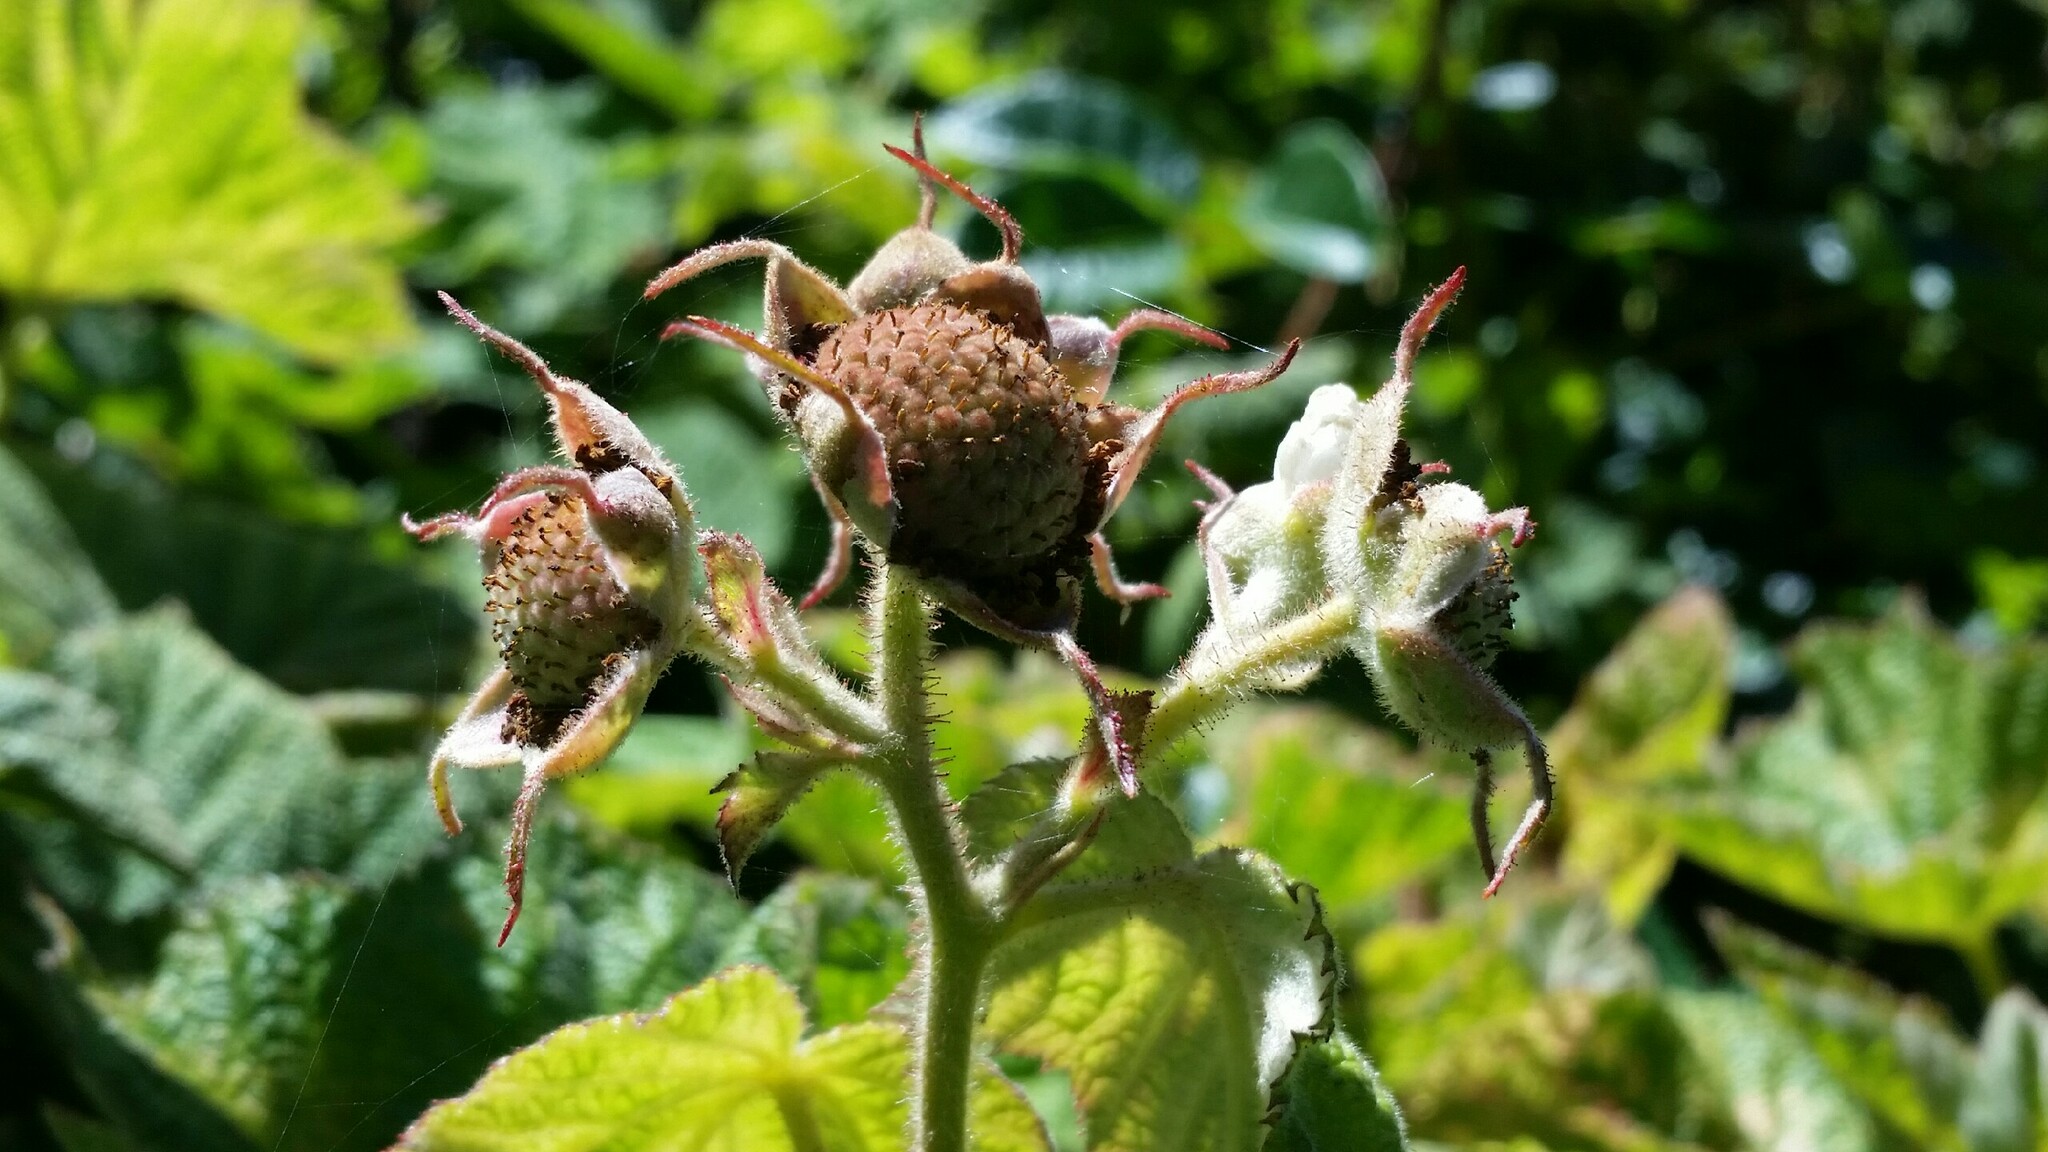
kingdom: Plantae
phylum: Tracheophyta
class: Magnoliopsida
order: Rosales
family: Rosaceae
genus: Rubus
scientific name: Rubus parviflorus
